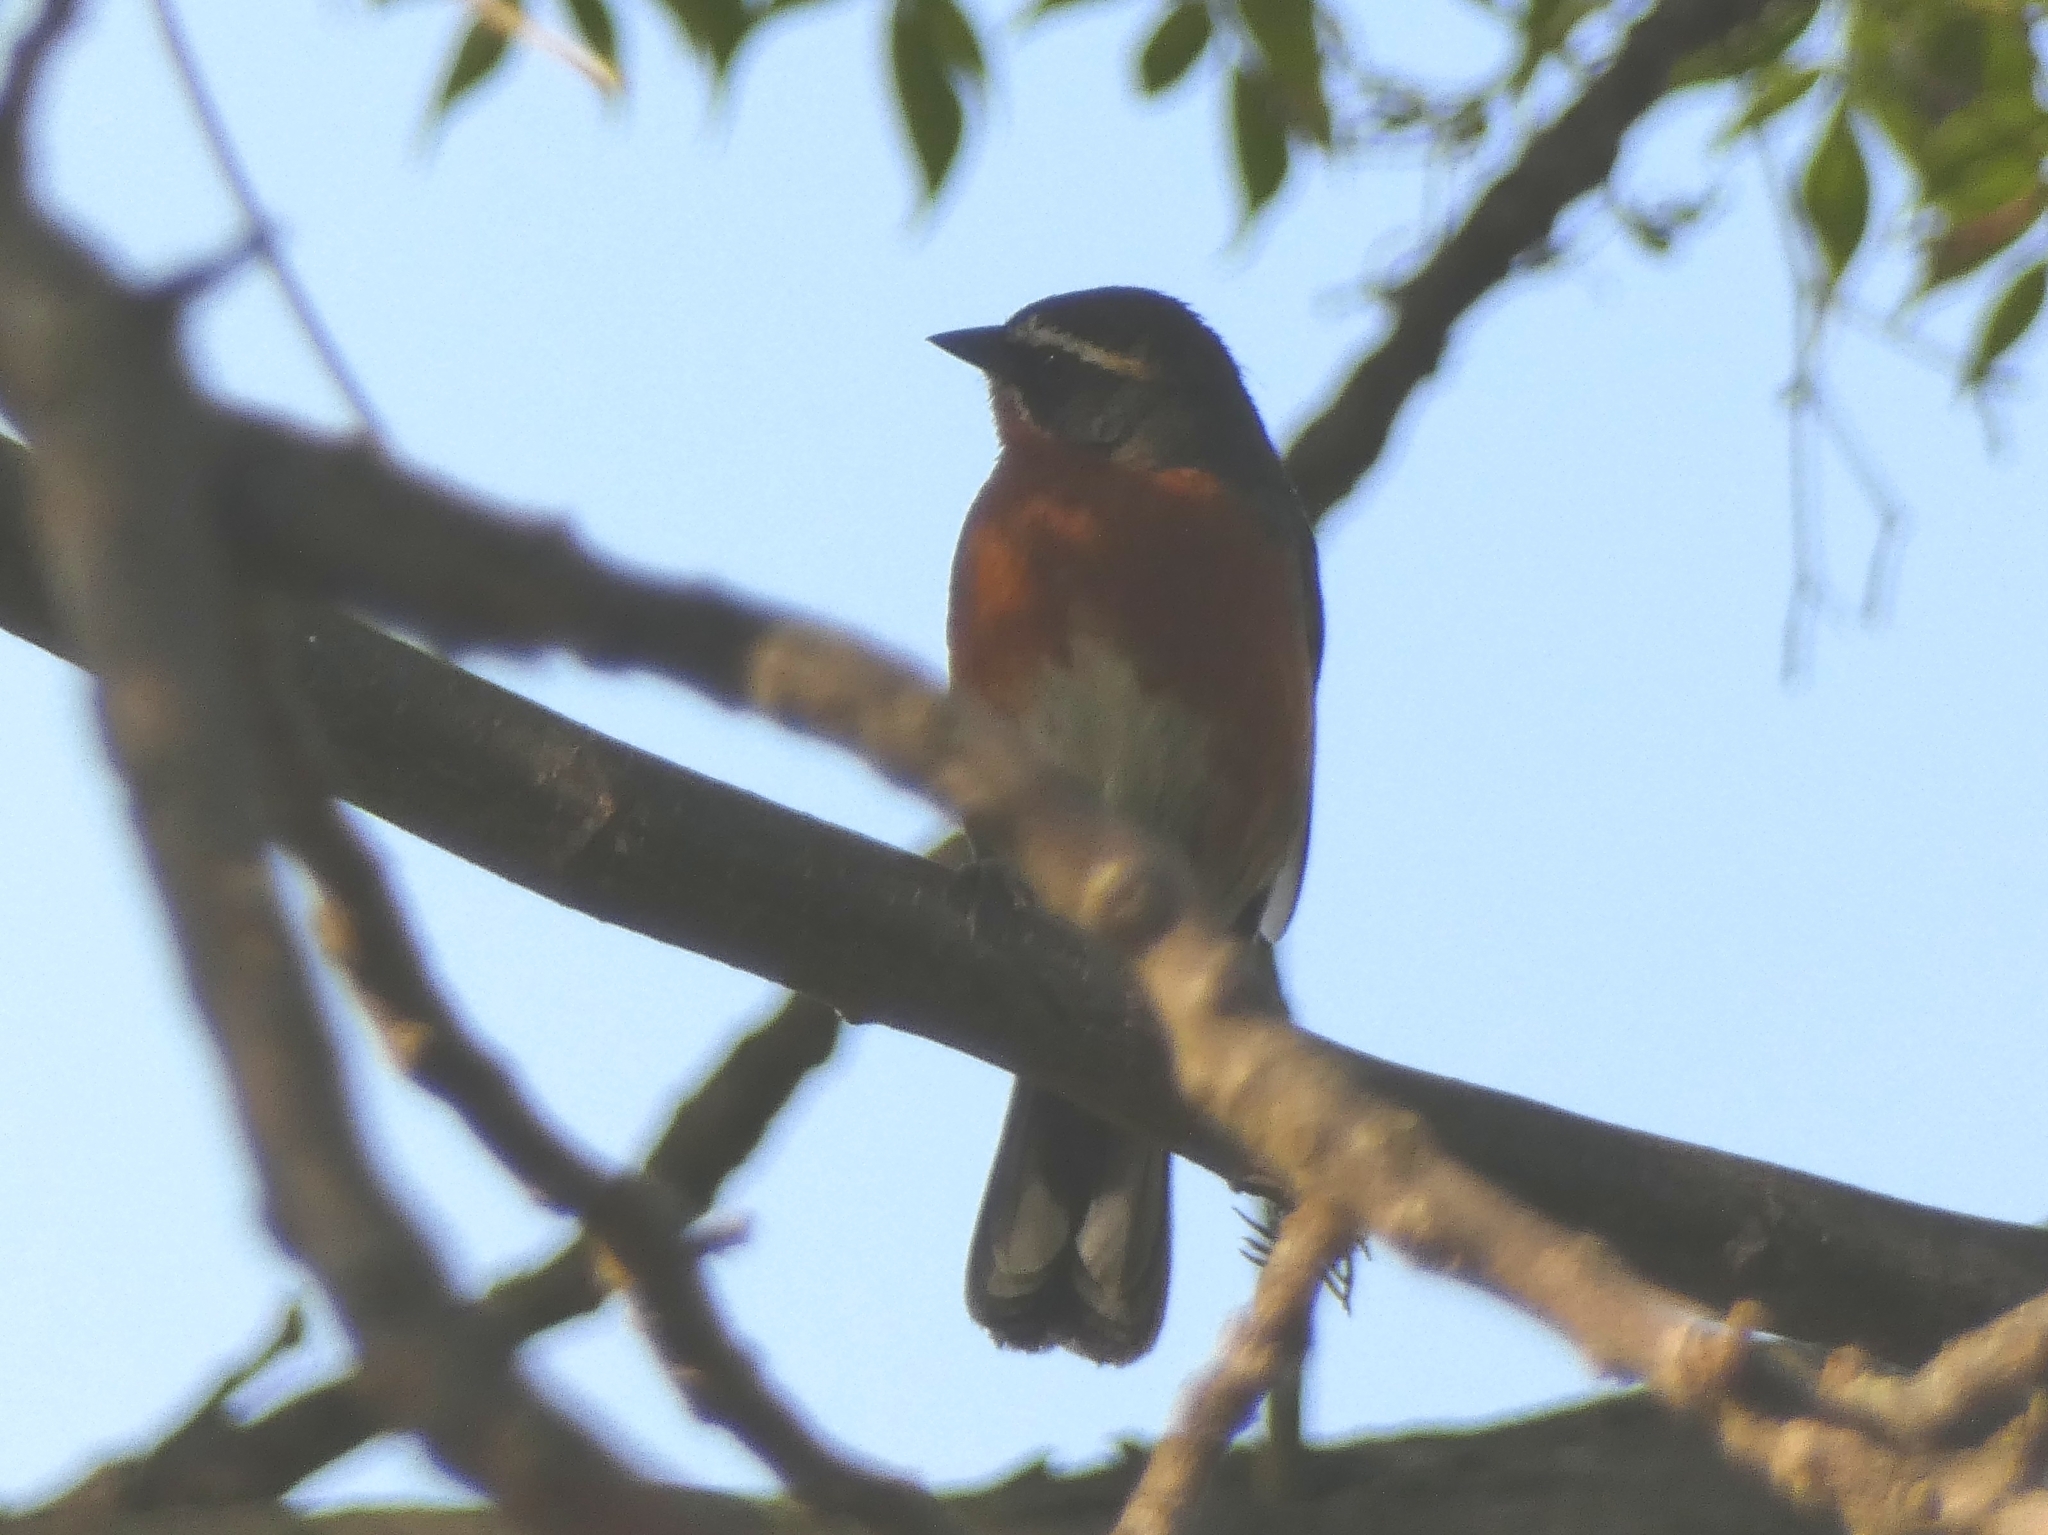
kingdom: Animalia
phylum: Chordata
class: Aves
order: Passeriformes
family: Thraupidae
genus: Poospiza
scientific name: Poospiza nigrorufa
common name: Black-and-rufous warbling finch
